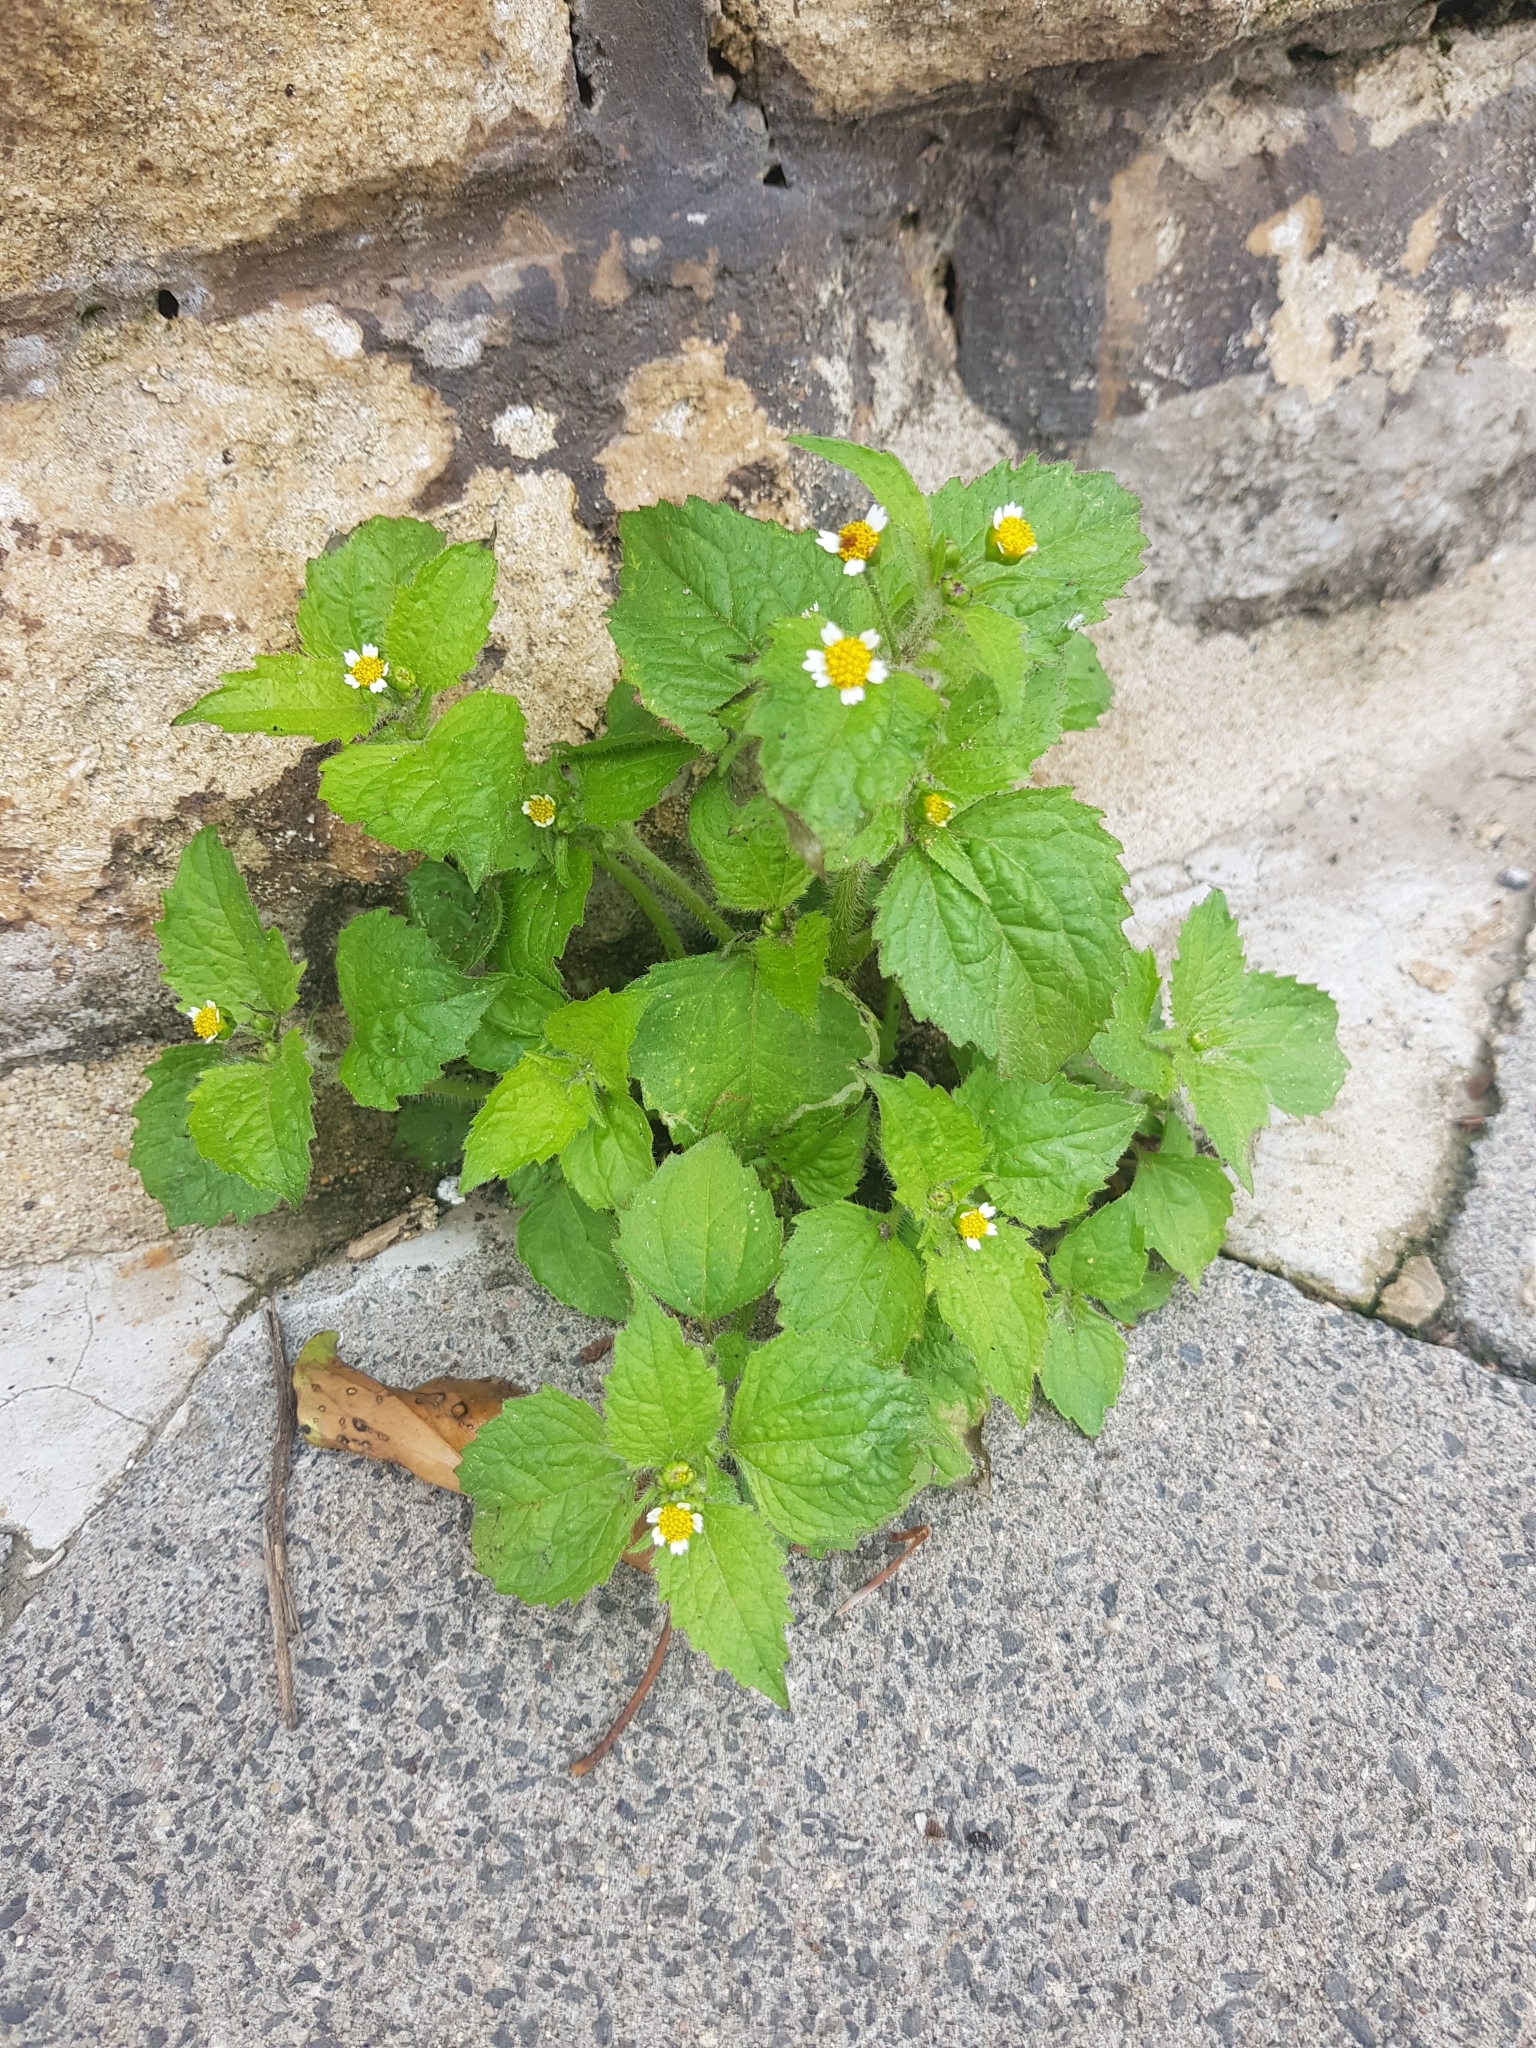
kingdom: Plantae
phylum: Tracheophyta
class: Magnoliopsida
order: Asterales
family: Asteraceae
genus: Galinsoga
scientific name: Galinsoga quadriradiata
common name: Shaggy soldier
